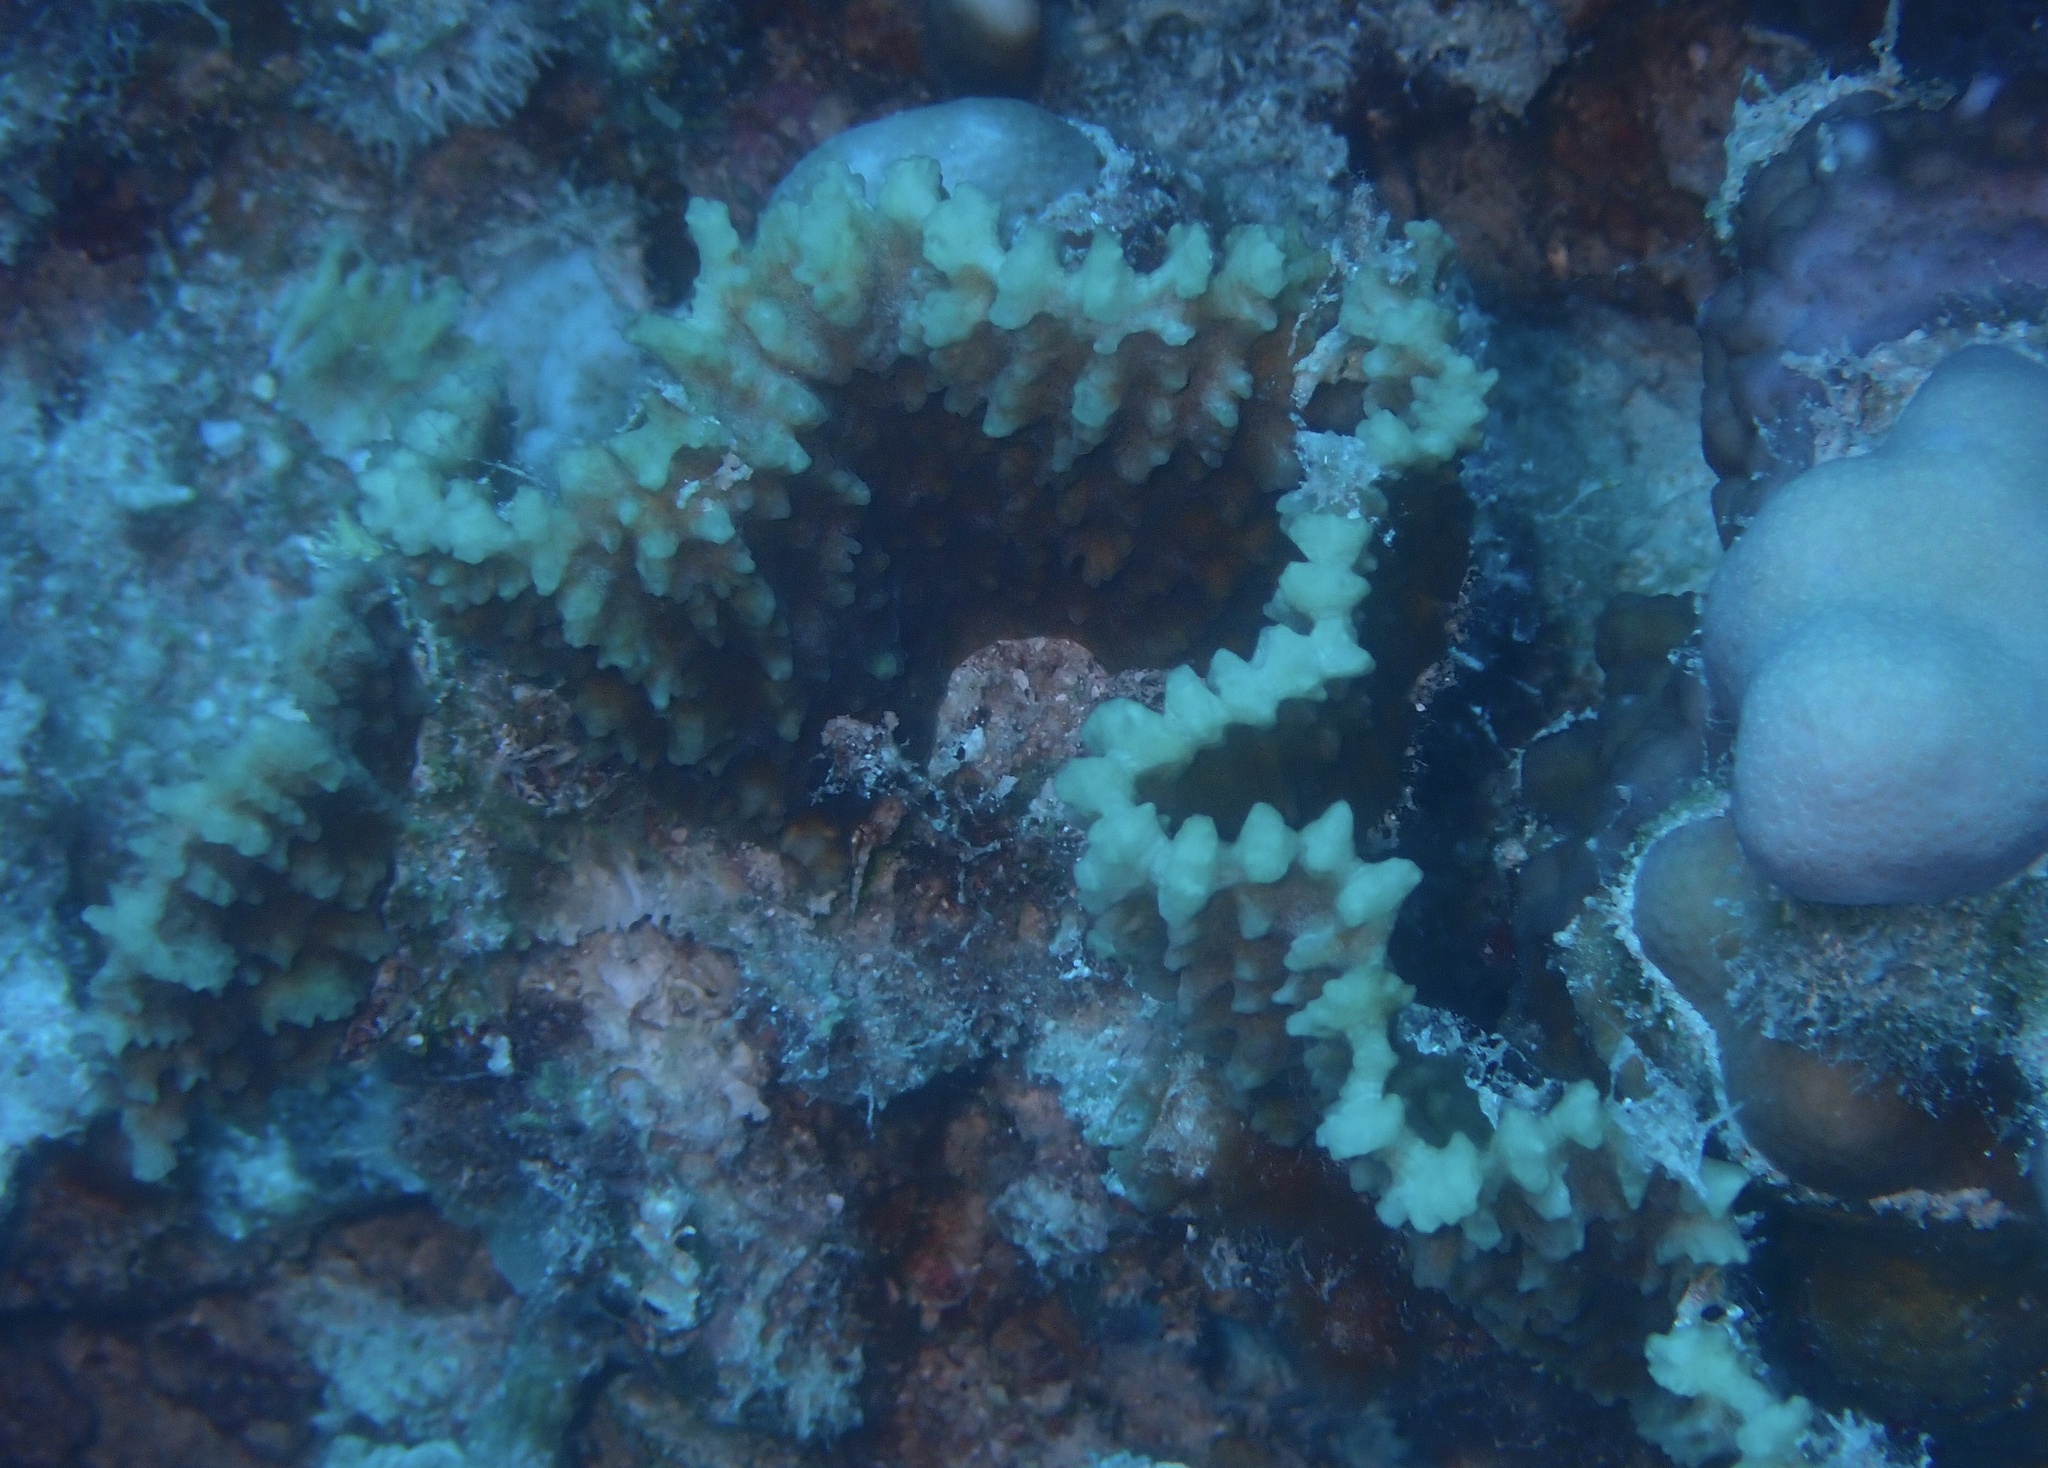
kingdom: Animalia
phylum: Cnidaria
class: Anthozoa
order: Scleractinia
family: Lobophylliidae
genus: Oxypora
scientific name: Oxypora convoluta
